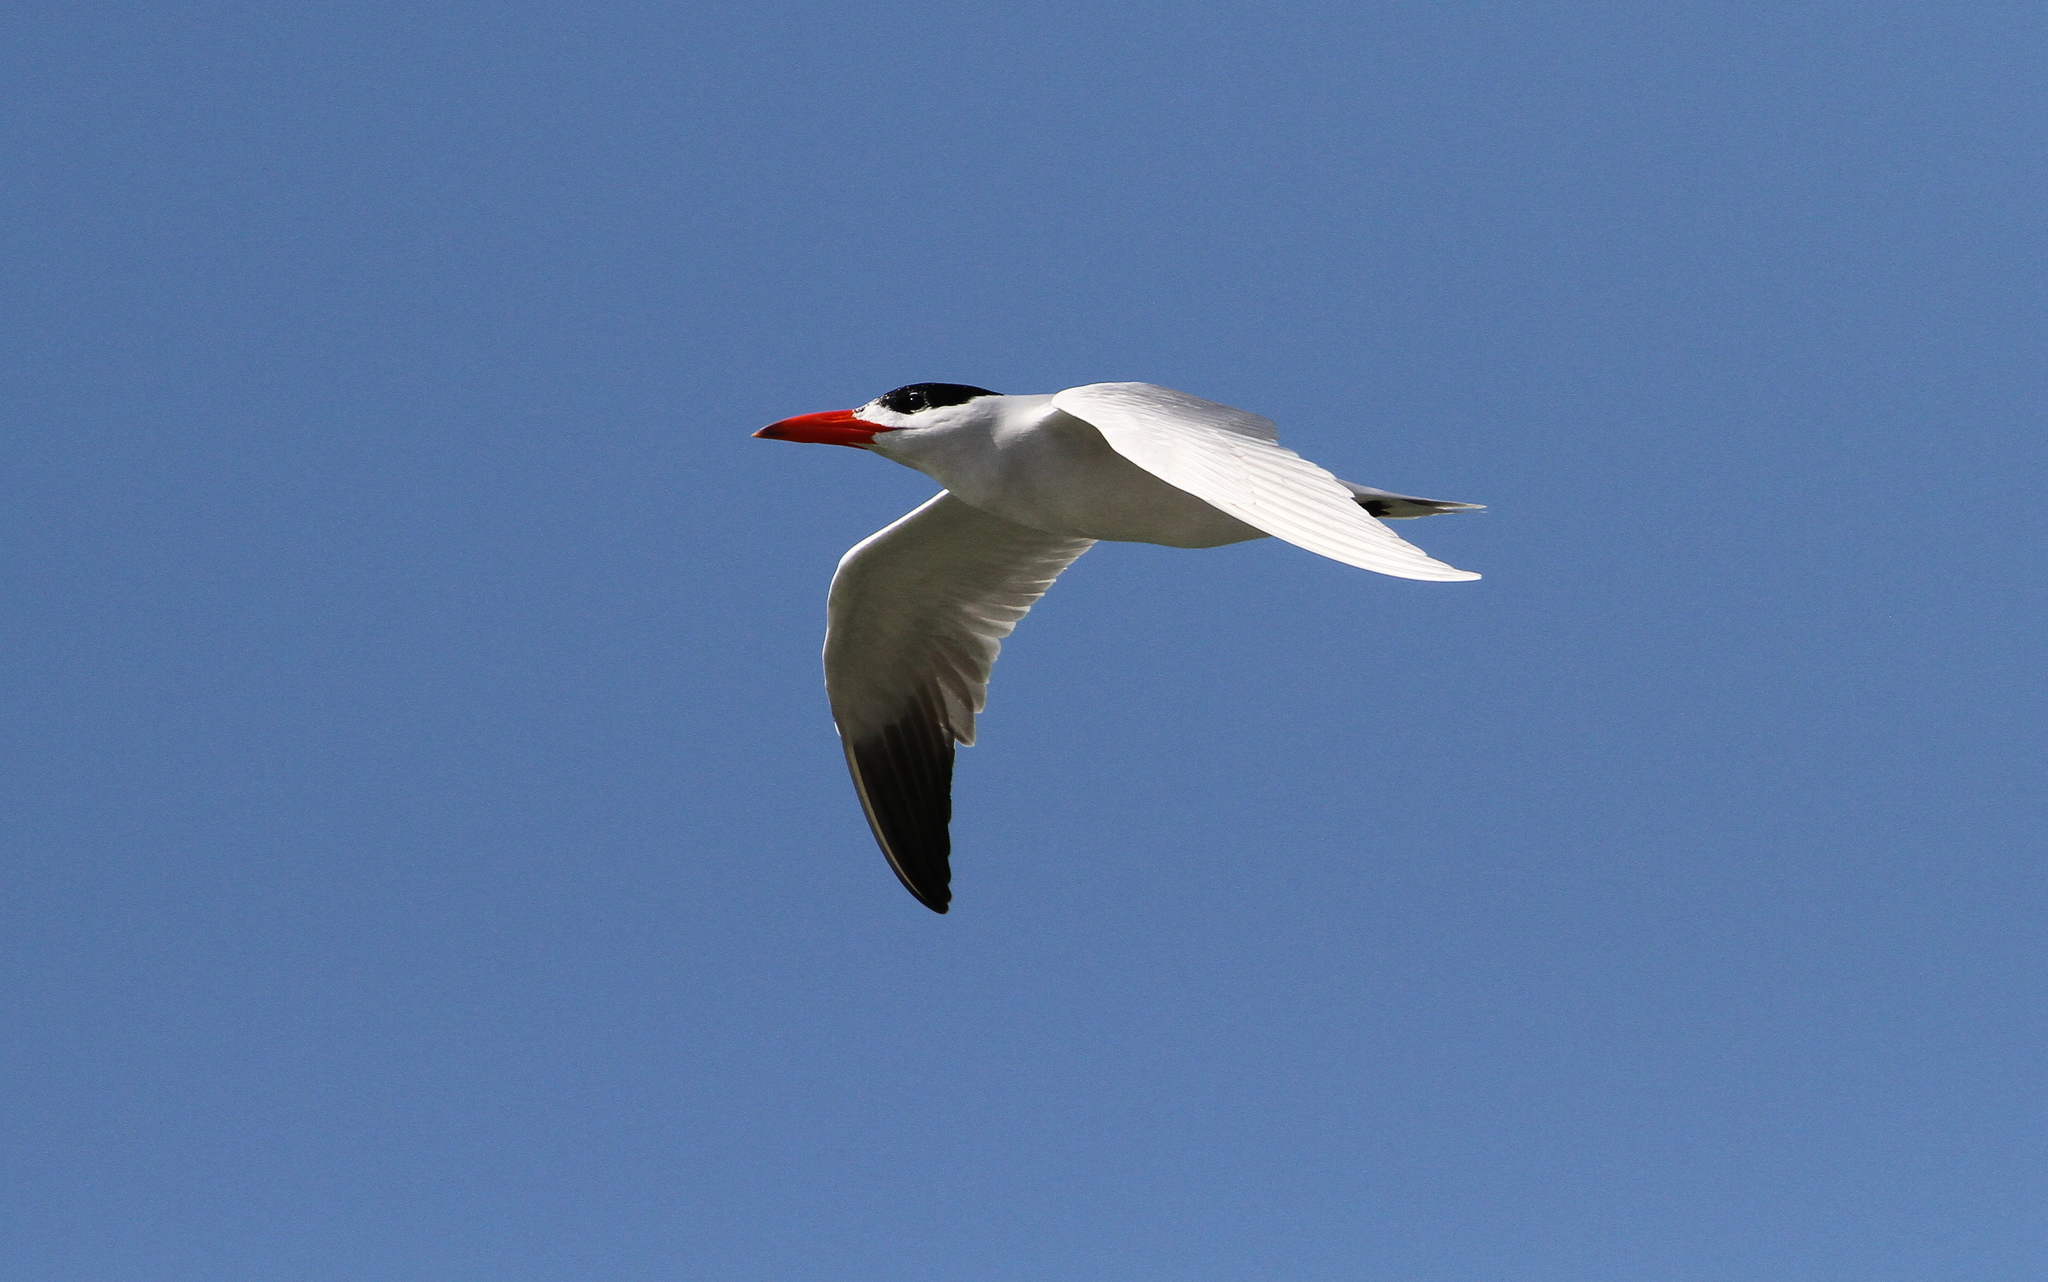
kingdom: Animalia
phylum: Chordata
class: Aves
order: Charadriiformes
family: Laridae
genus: Hydroprogne
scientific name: Hydroprogne caspia
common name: Caspian tern
